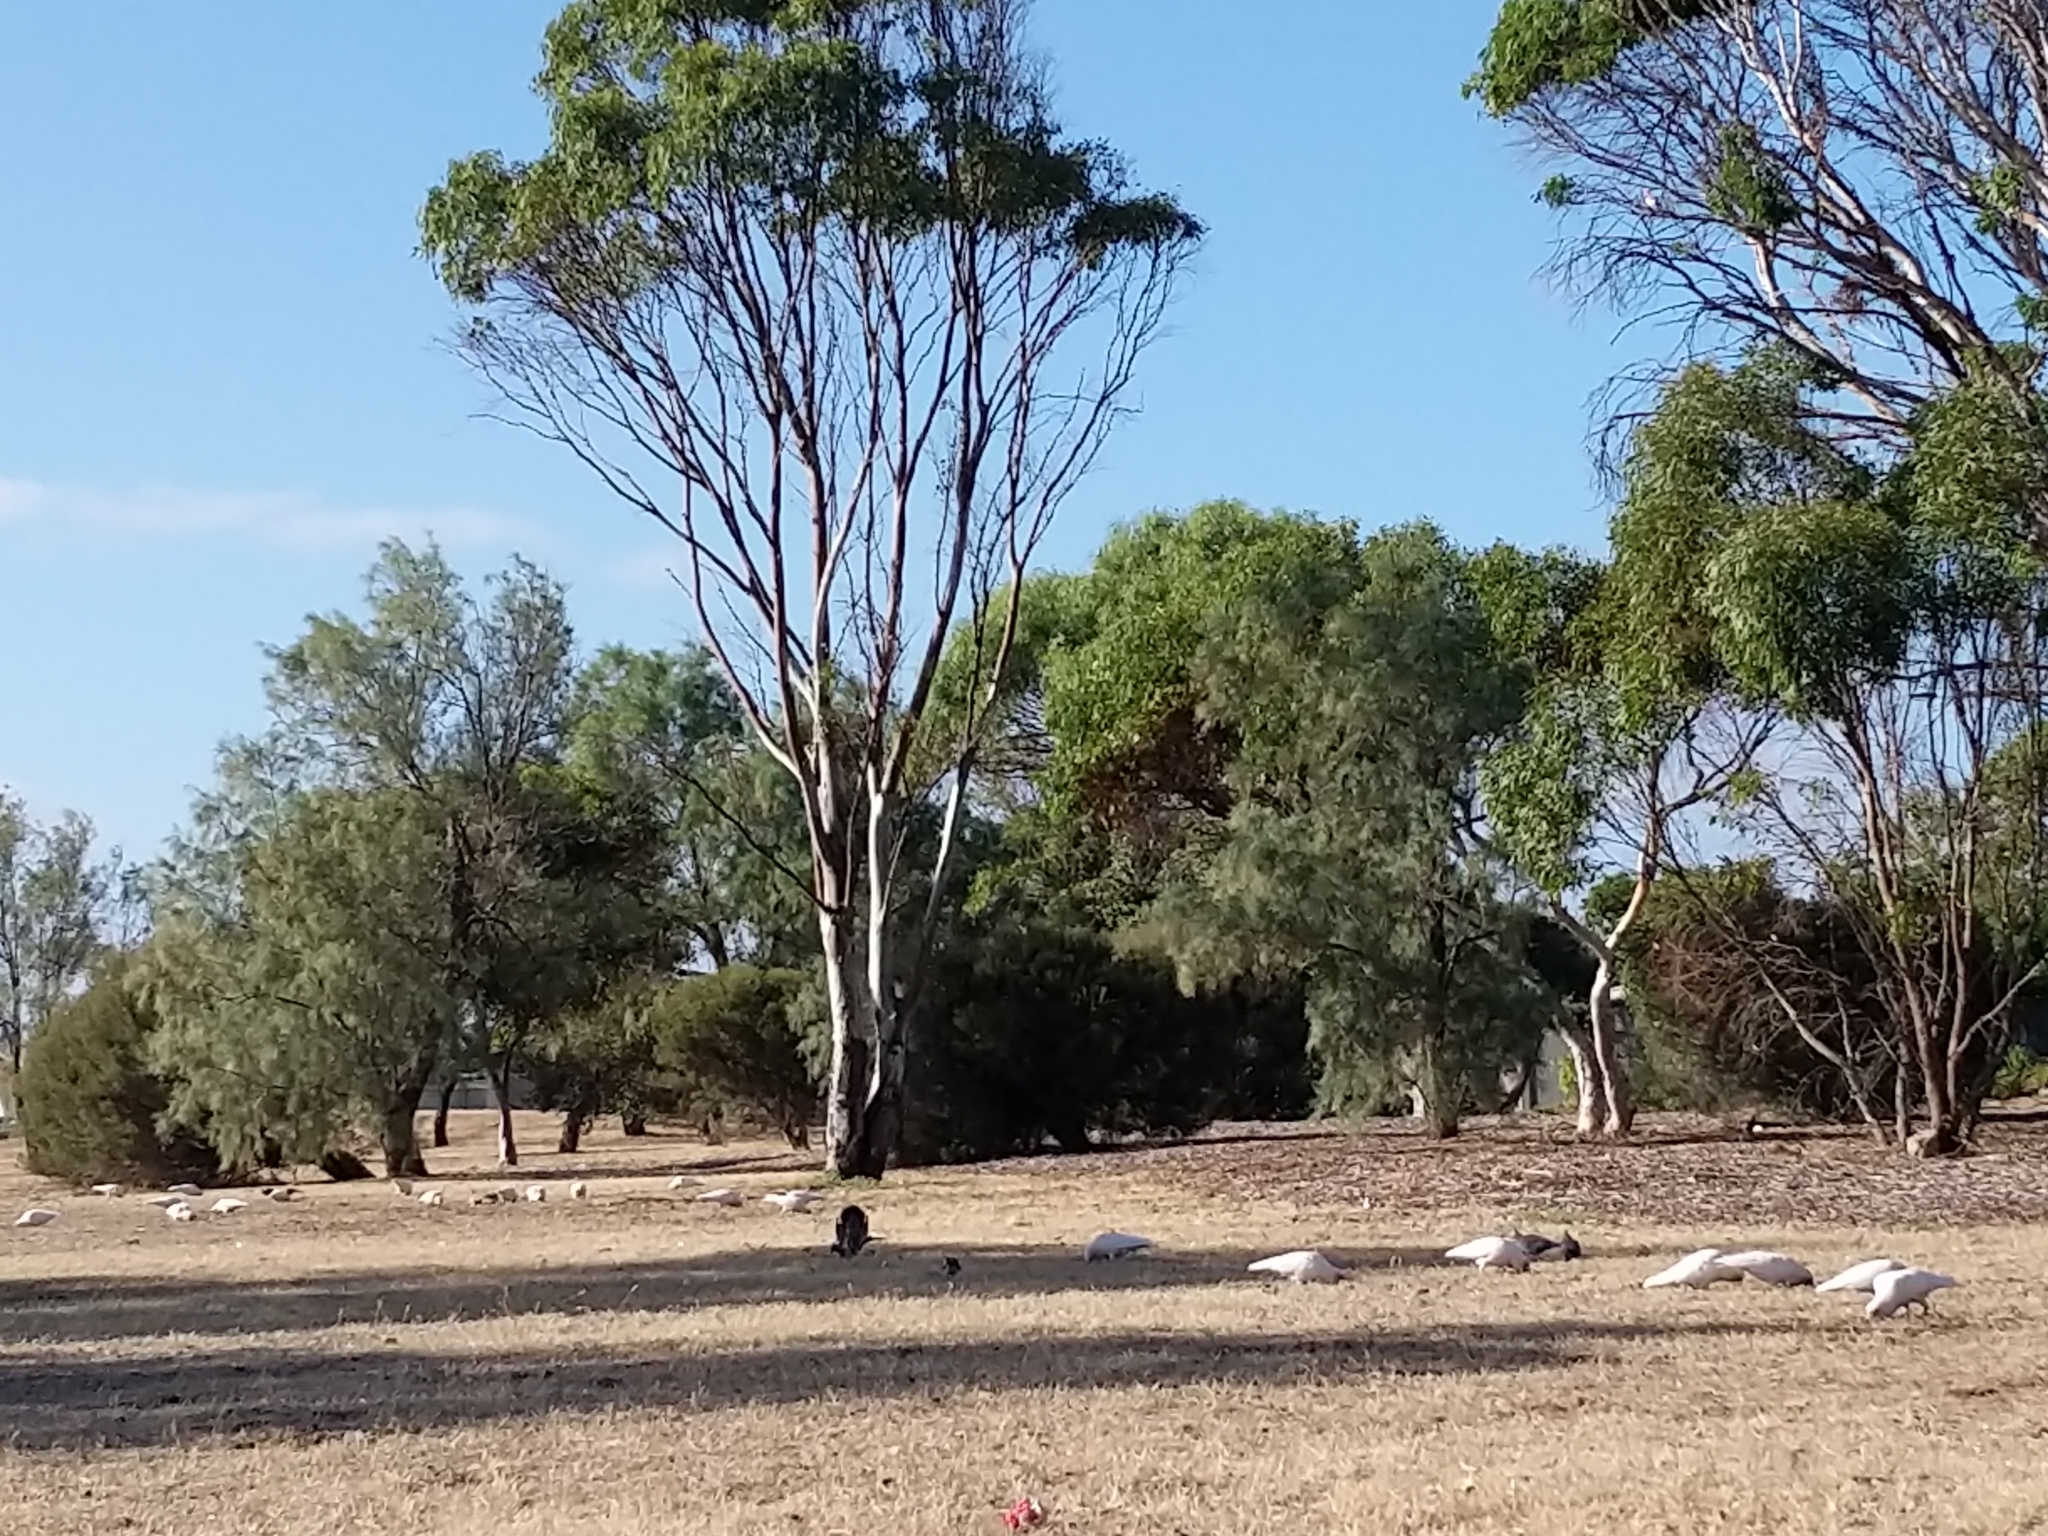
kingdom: Animalia
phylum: Chordata
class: Aves
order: Psittaciformes
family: Psittacidae
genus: Cacatua
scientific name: Cacatua
